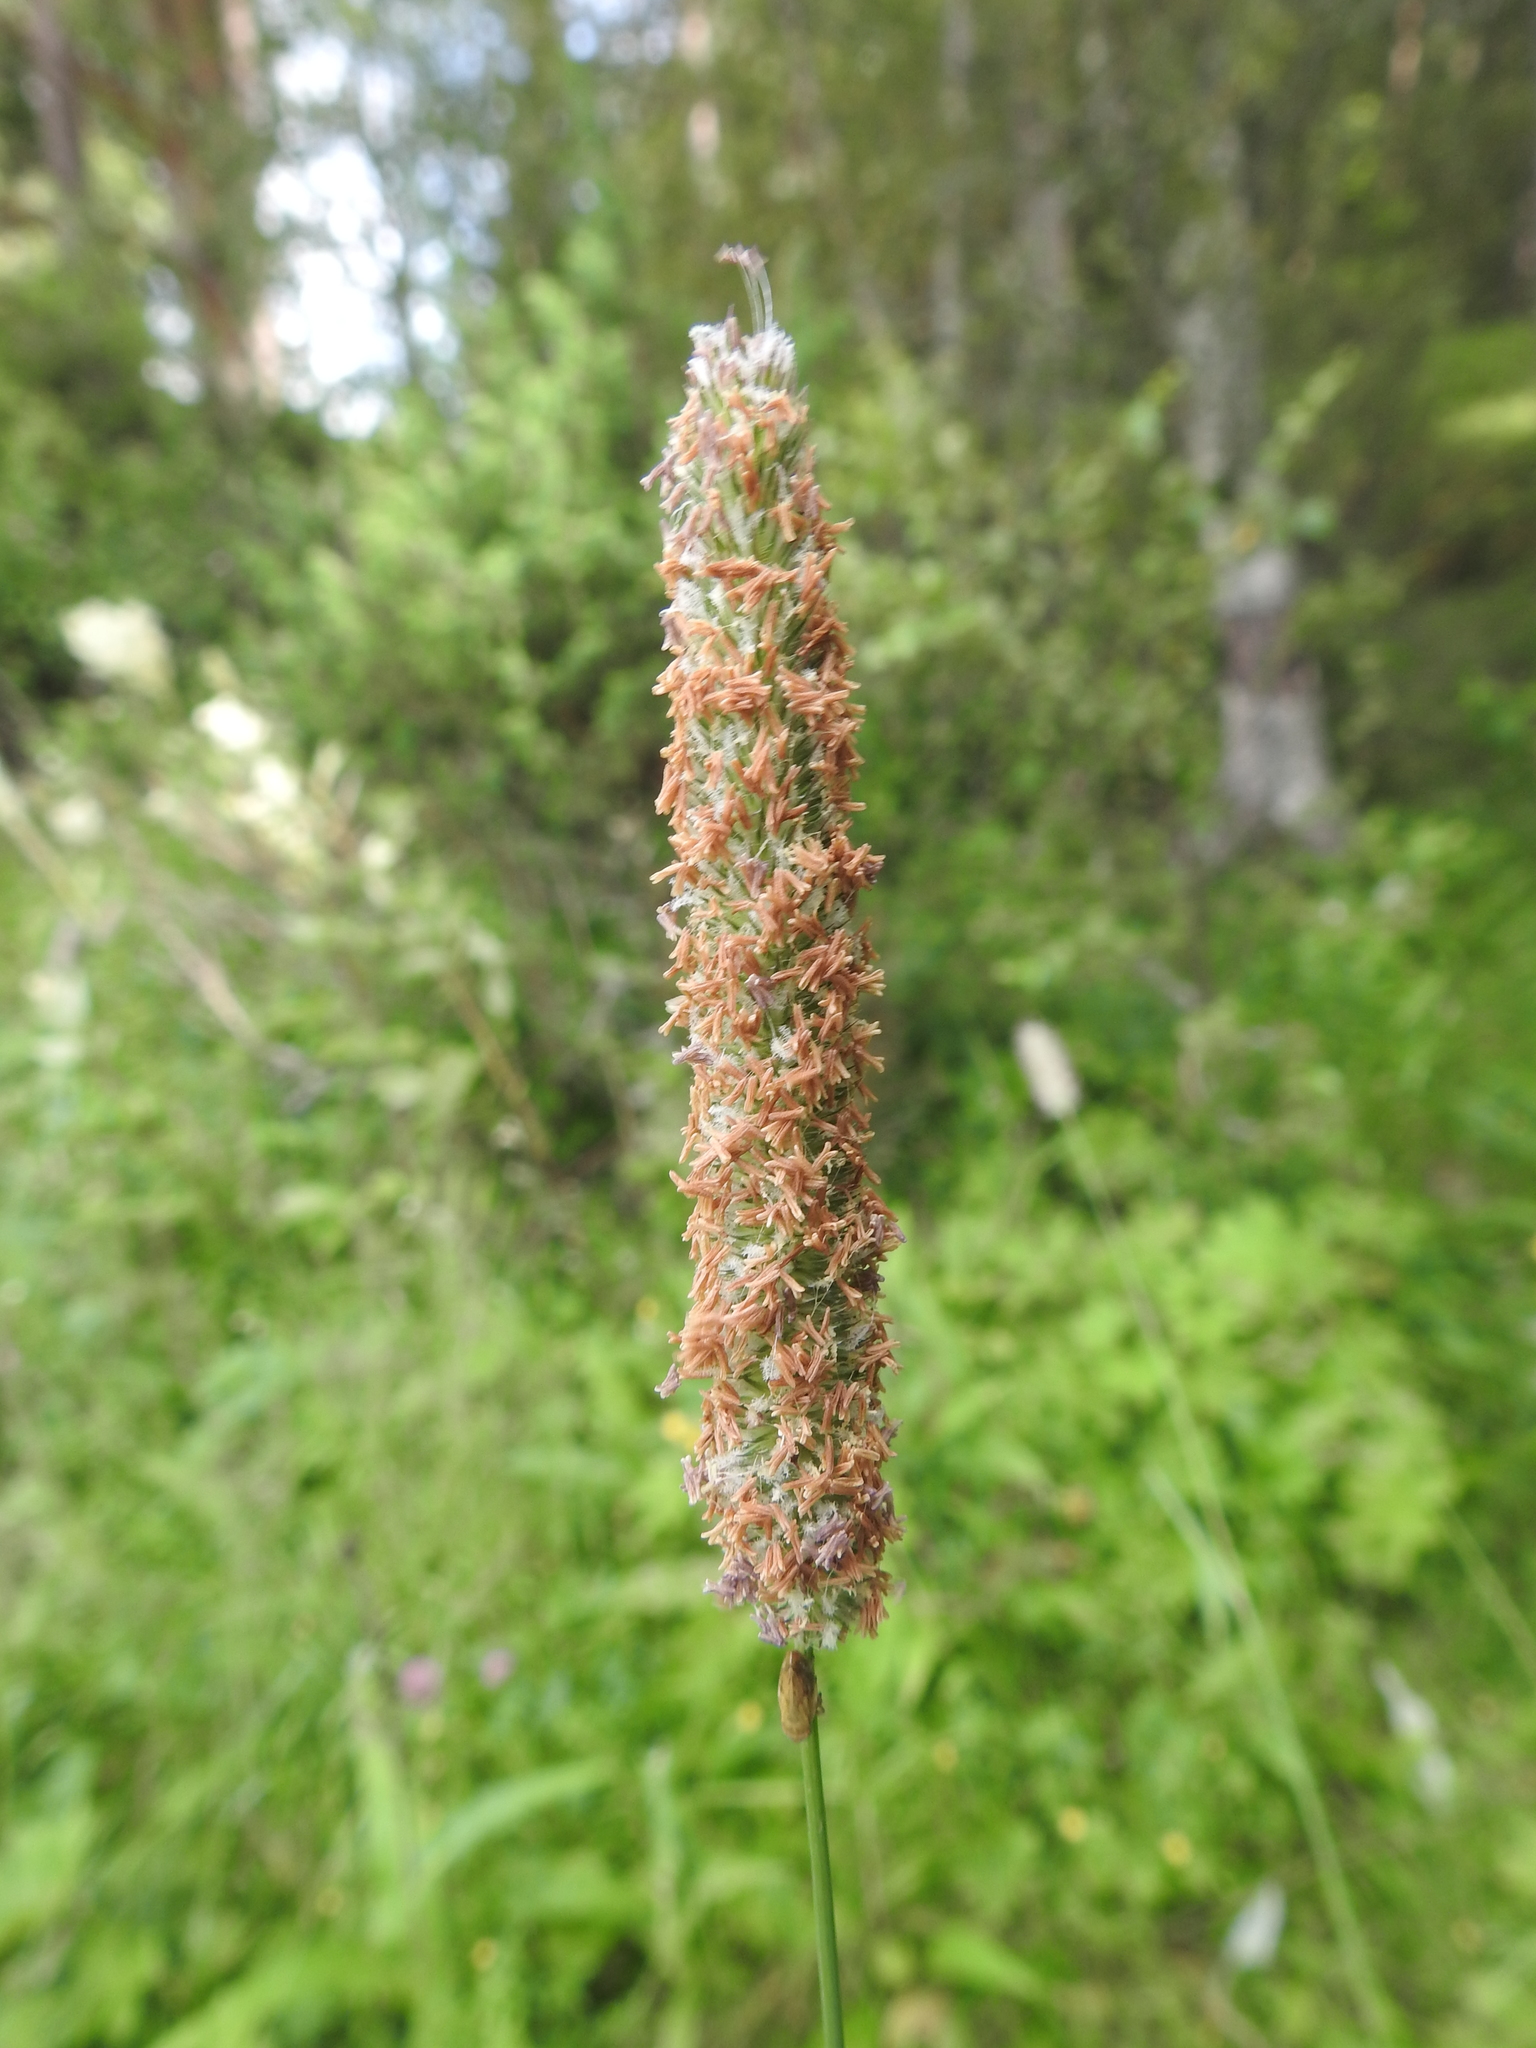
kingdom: Plantae
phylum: Tracheophyta
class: Liliopsida
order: Poales
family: Poaceae
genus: Alopecurus
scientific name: Alopecurus pratensis
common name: Meadow foxtail
